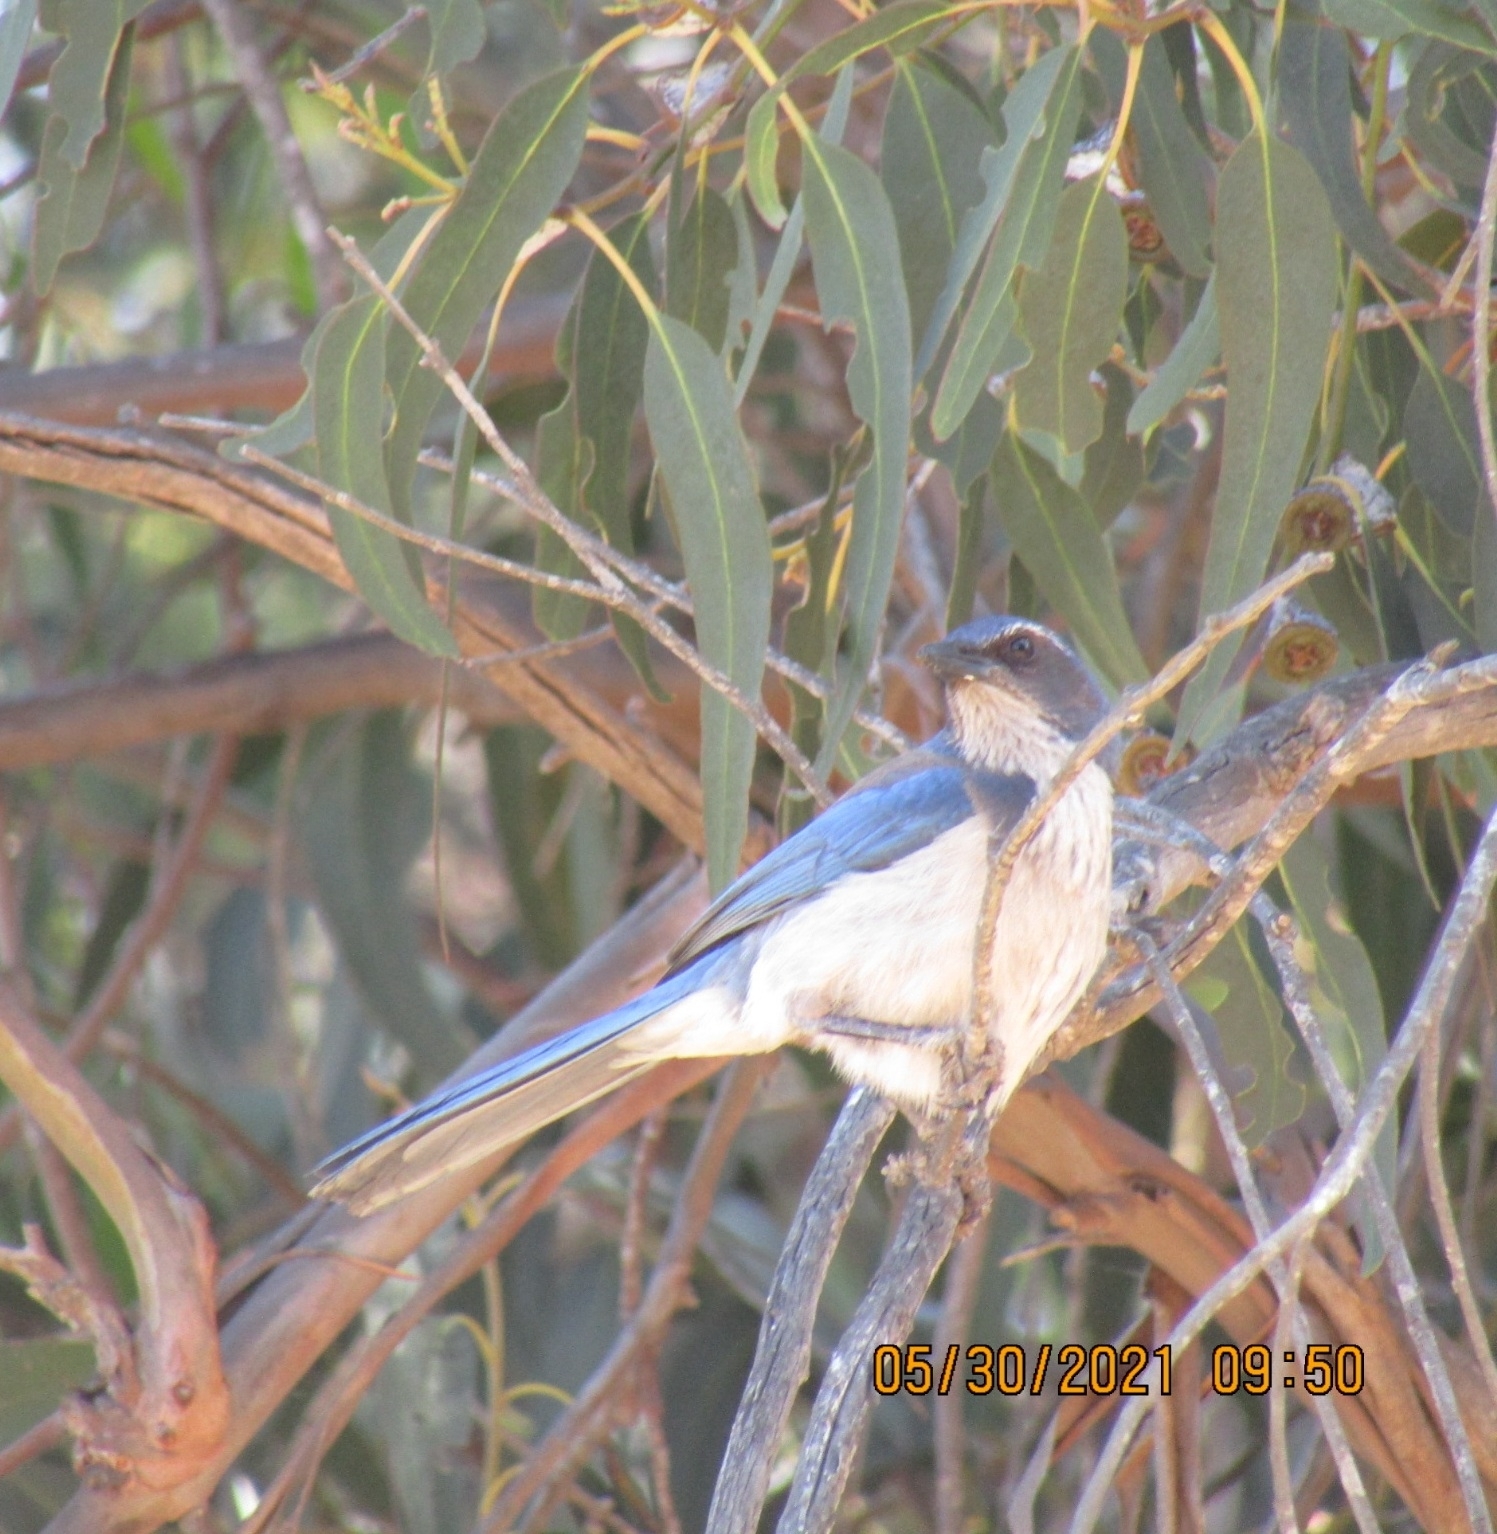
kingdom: Animalia
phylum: Chordata
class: Aves
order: Passeriformes
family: Corvidae
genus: Aphelocoma
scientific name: Aphelocoma californica
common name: California scrub-jay
